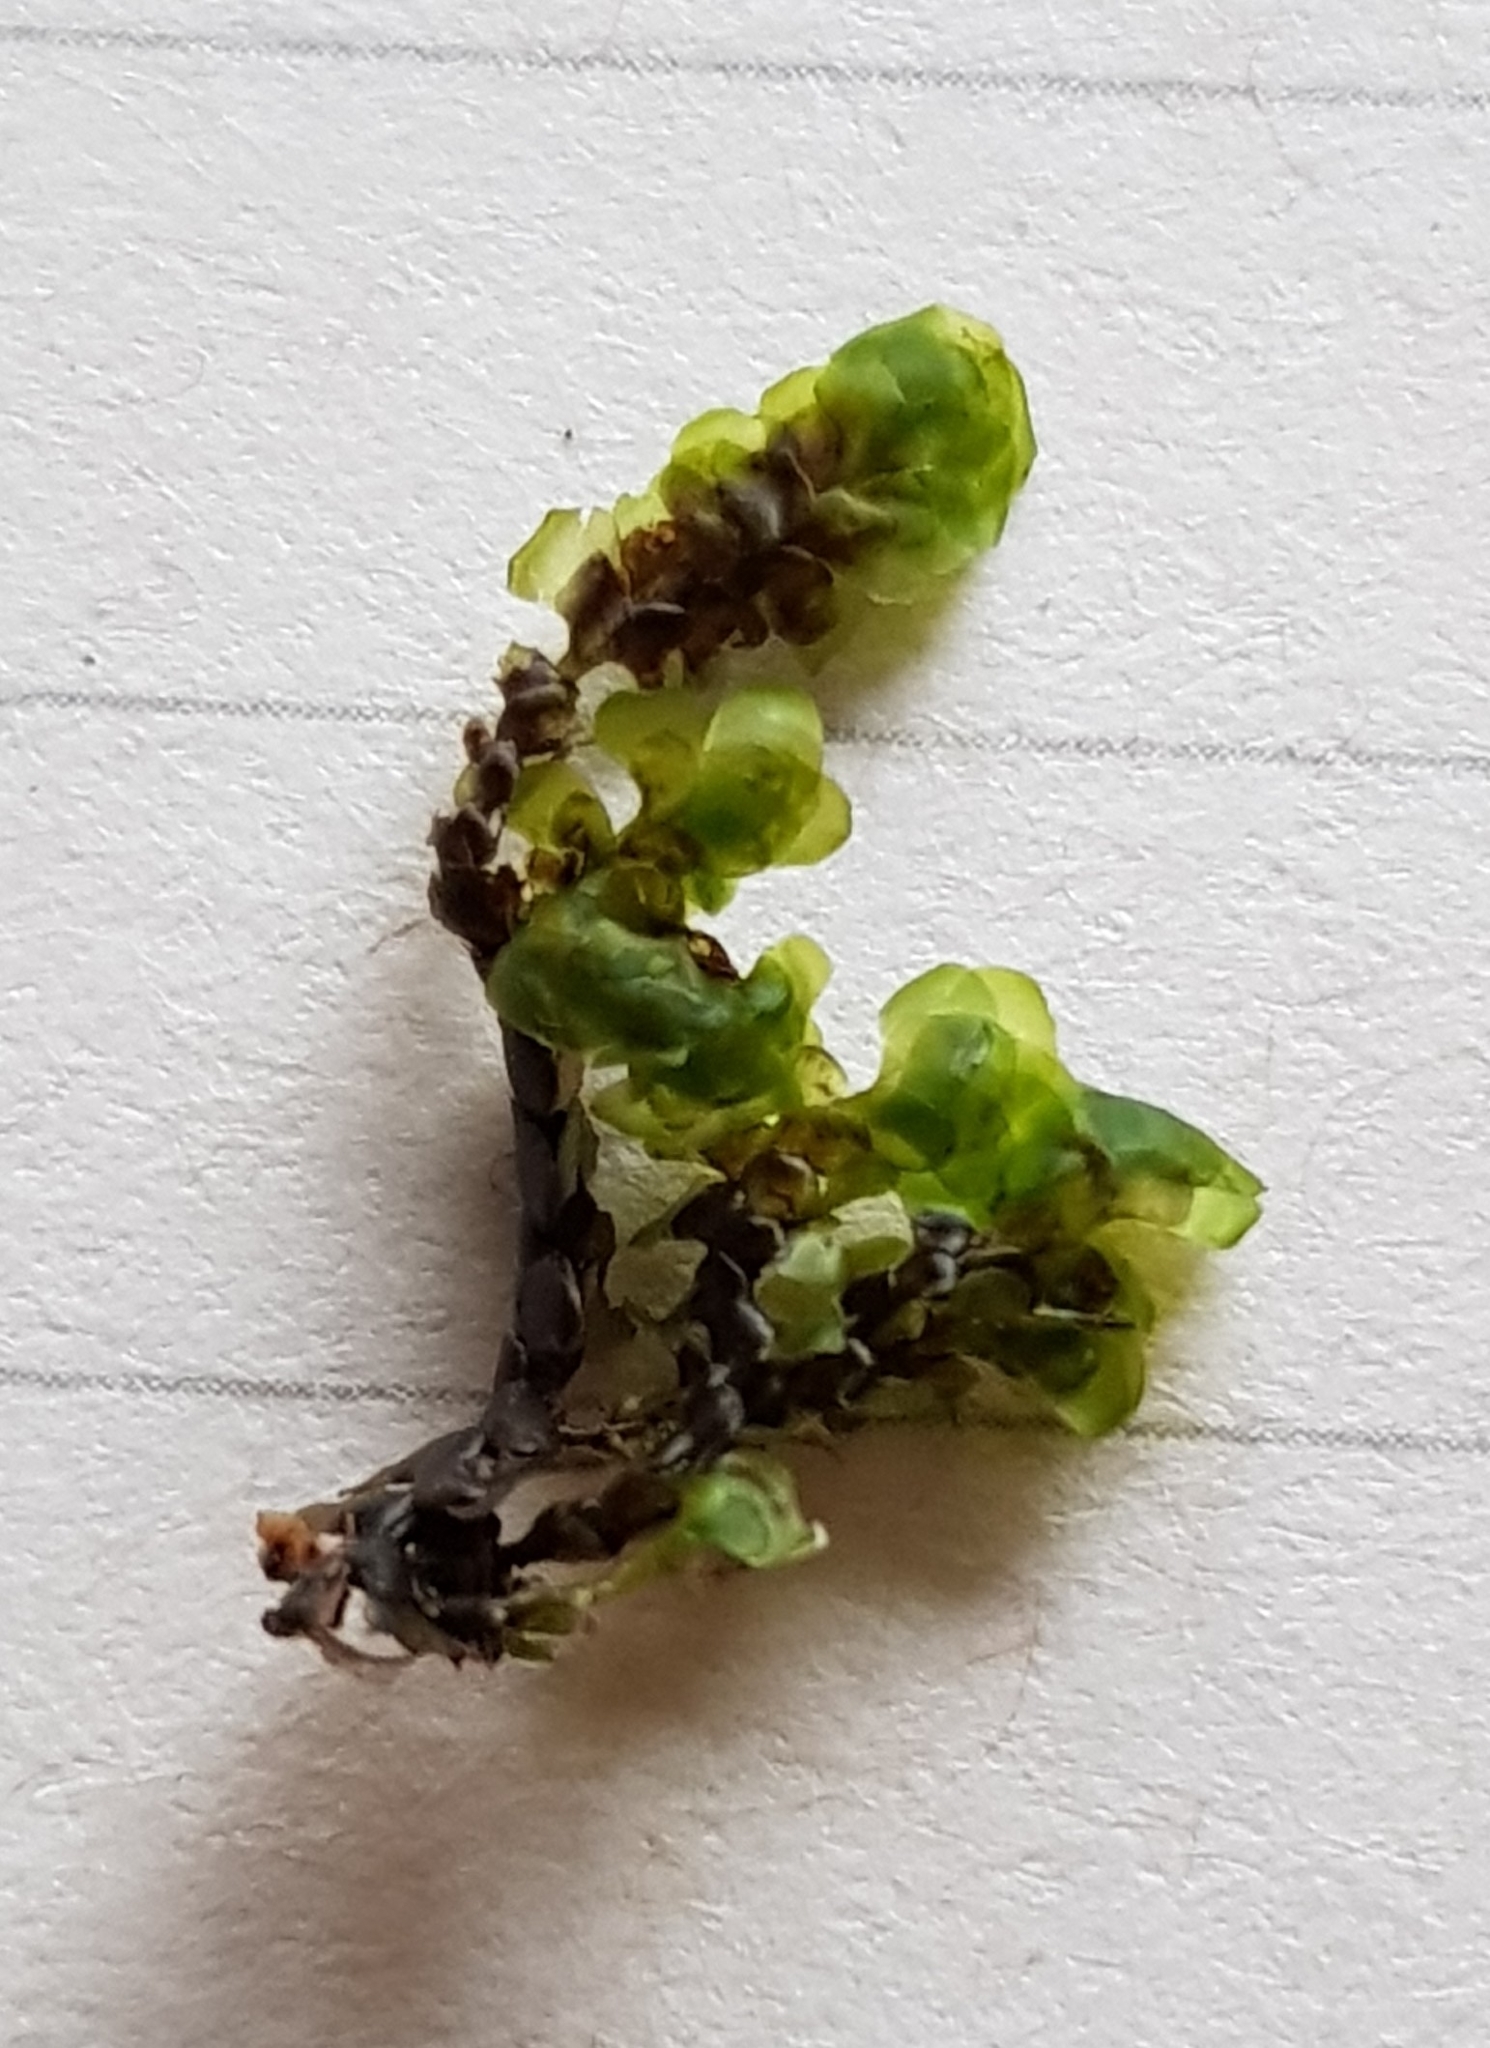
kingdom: Plantae
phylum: Marchantiophyta
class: Jungermanniopsida
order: Jungermanniales
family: Scapaniaceae
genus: Scapania
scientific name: Scapania undulata
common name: Water earwort
